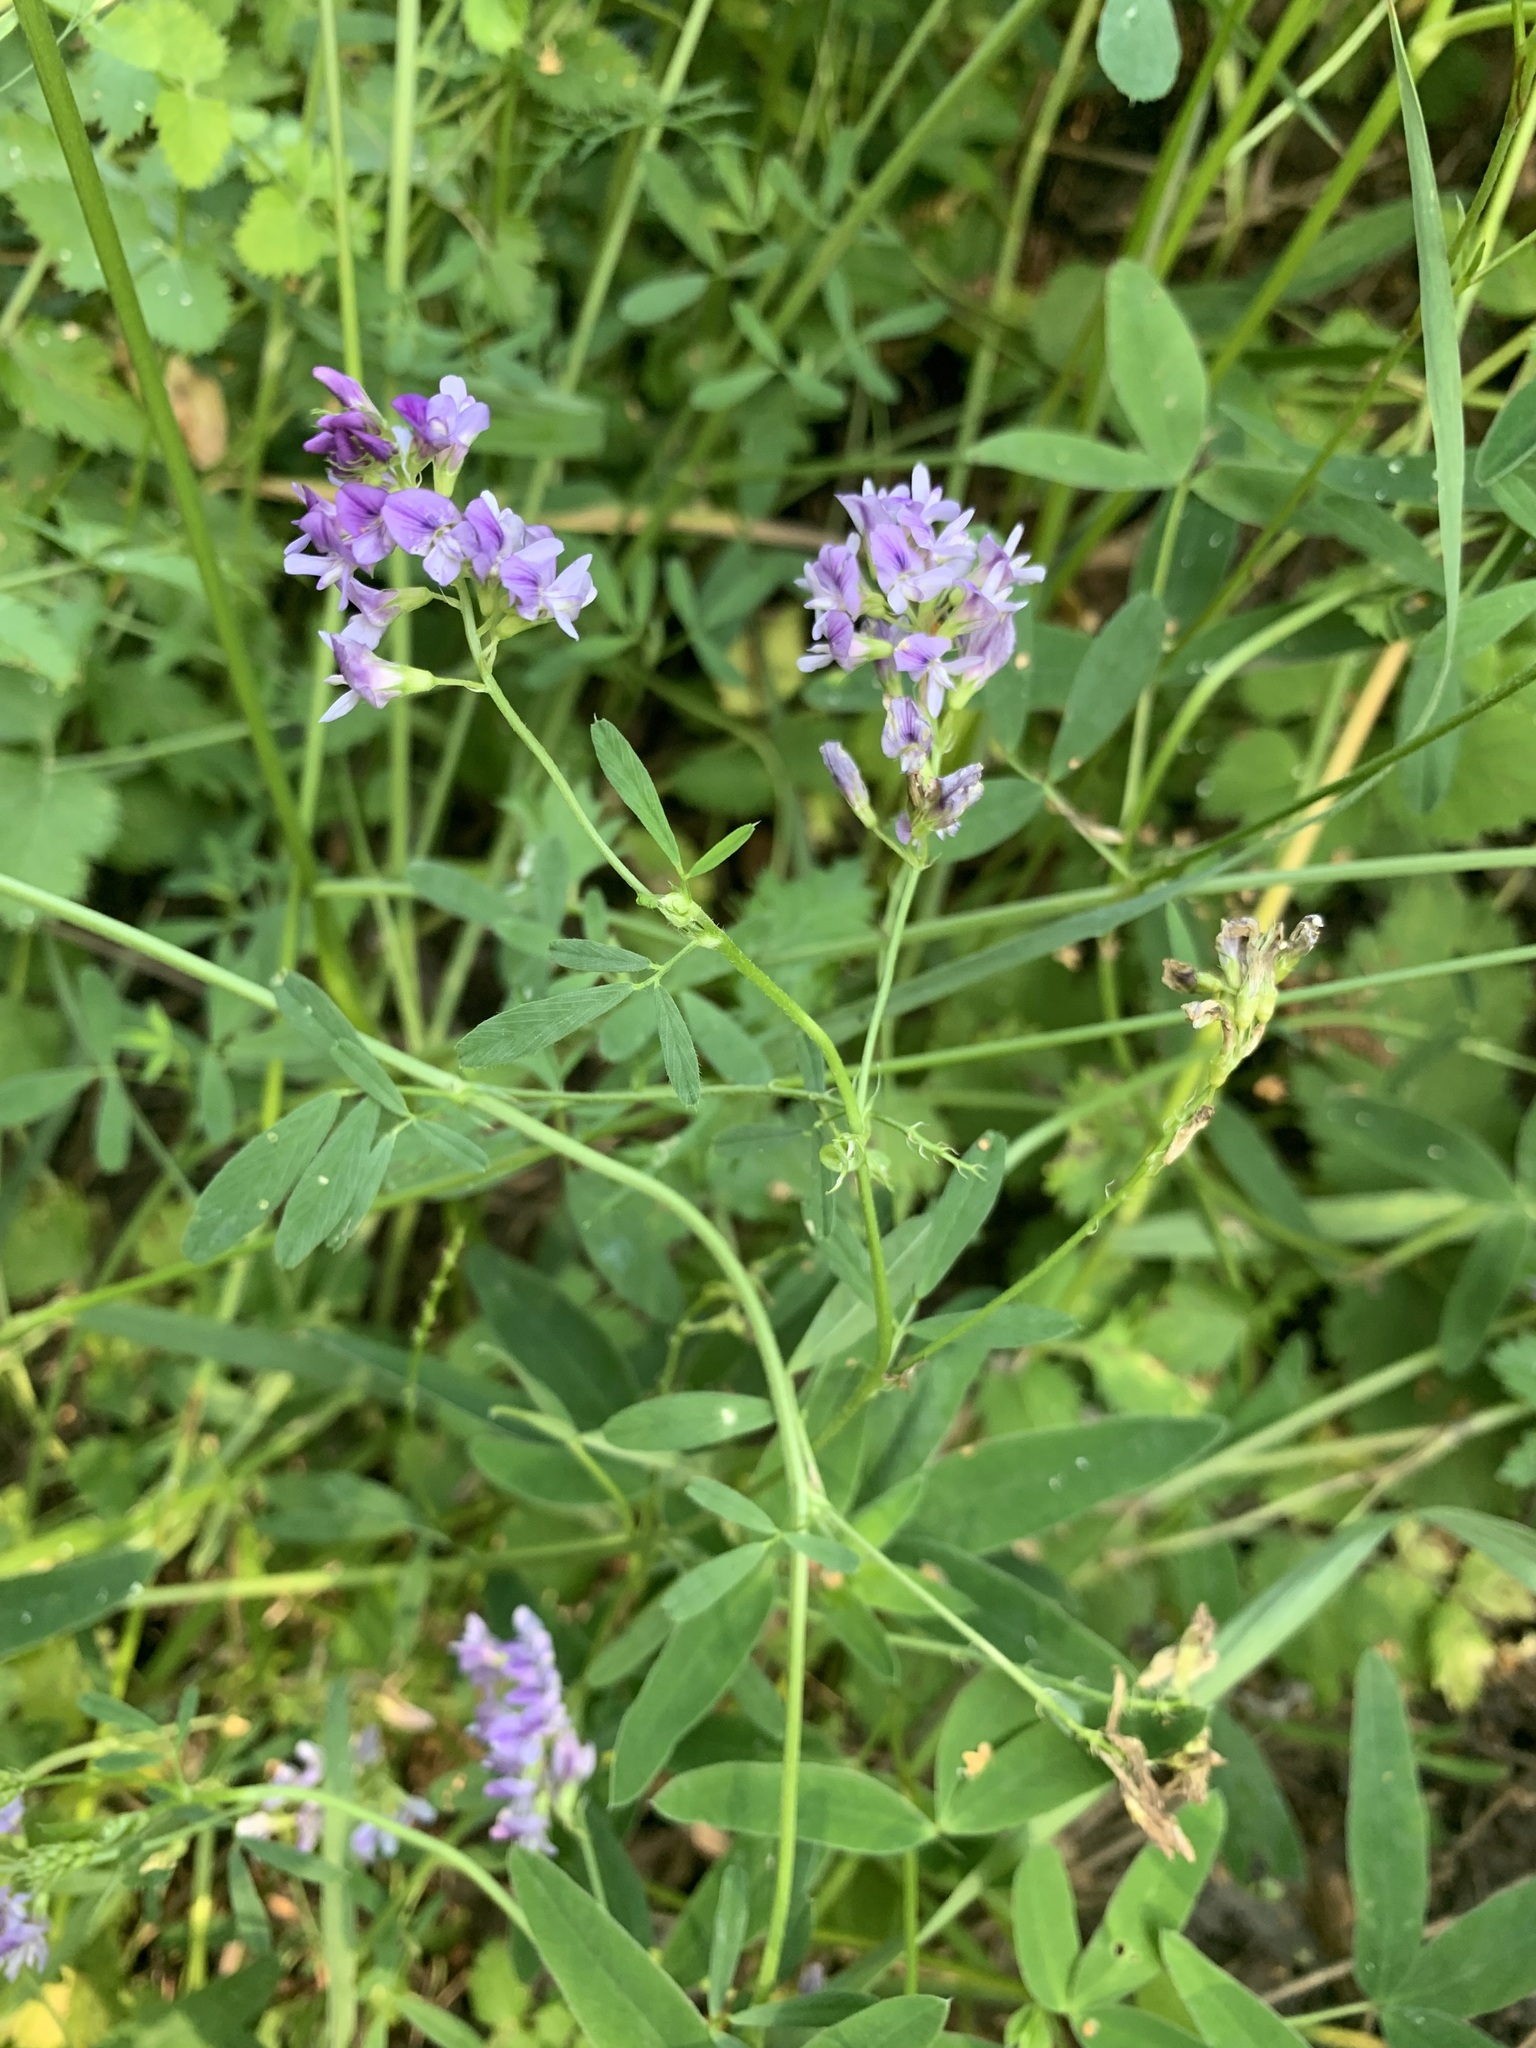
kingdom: Plantae
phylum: Tracheophyta
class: Magnoliopsida
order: Fabales
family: Fabaceae
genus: Medicago
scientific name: Medicago sativa
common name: Alfalfa
